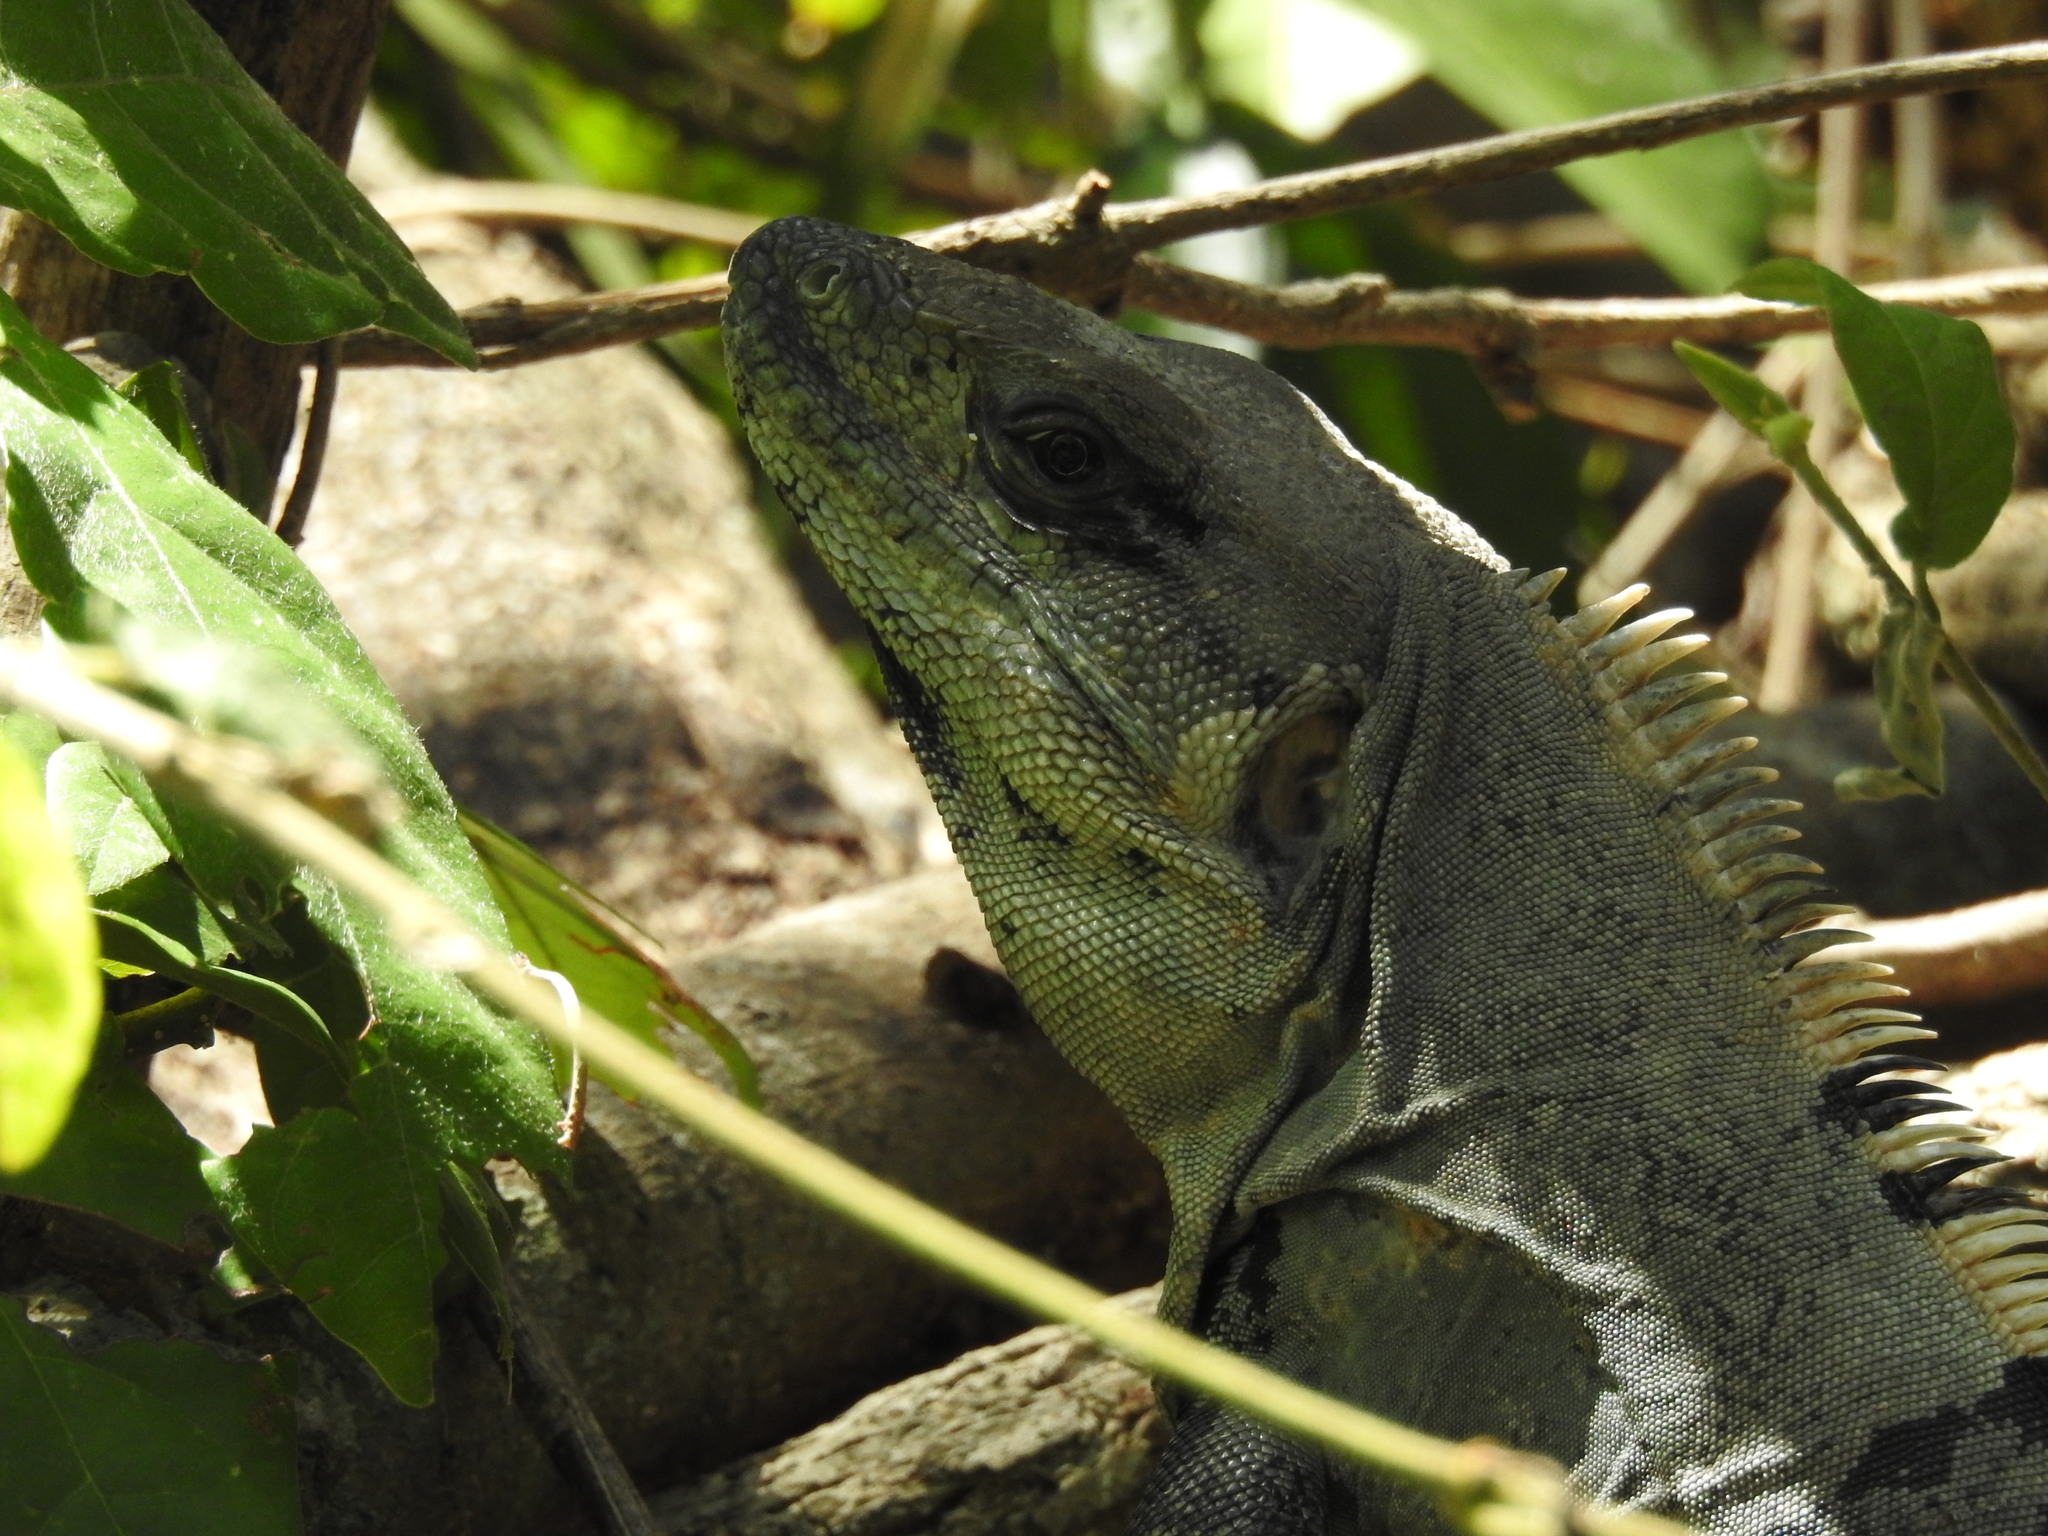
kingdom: Animalia
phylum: Chordata
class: Squamata
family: Iguanidae
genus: Ctenosaura
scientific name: Ctenosaura similis
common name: Black spiny-tailed iguana
